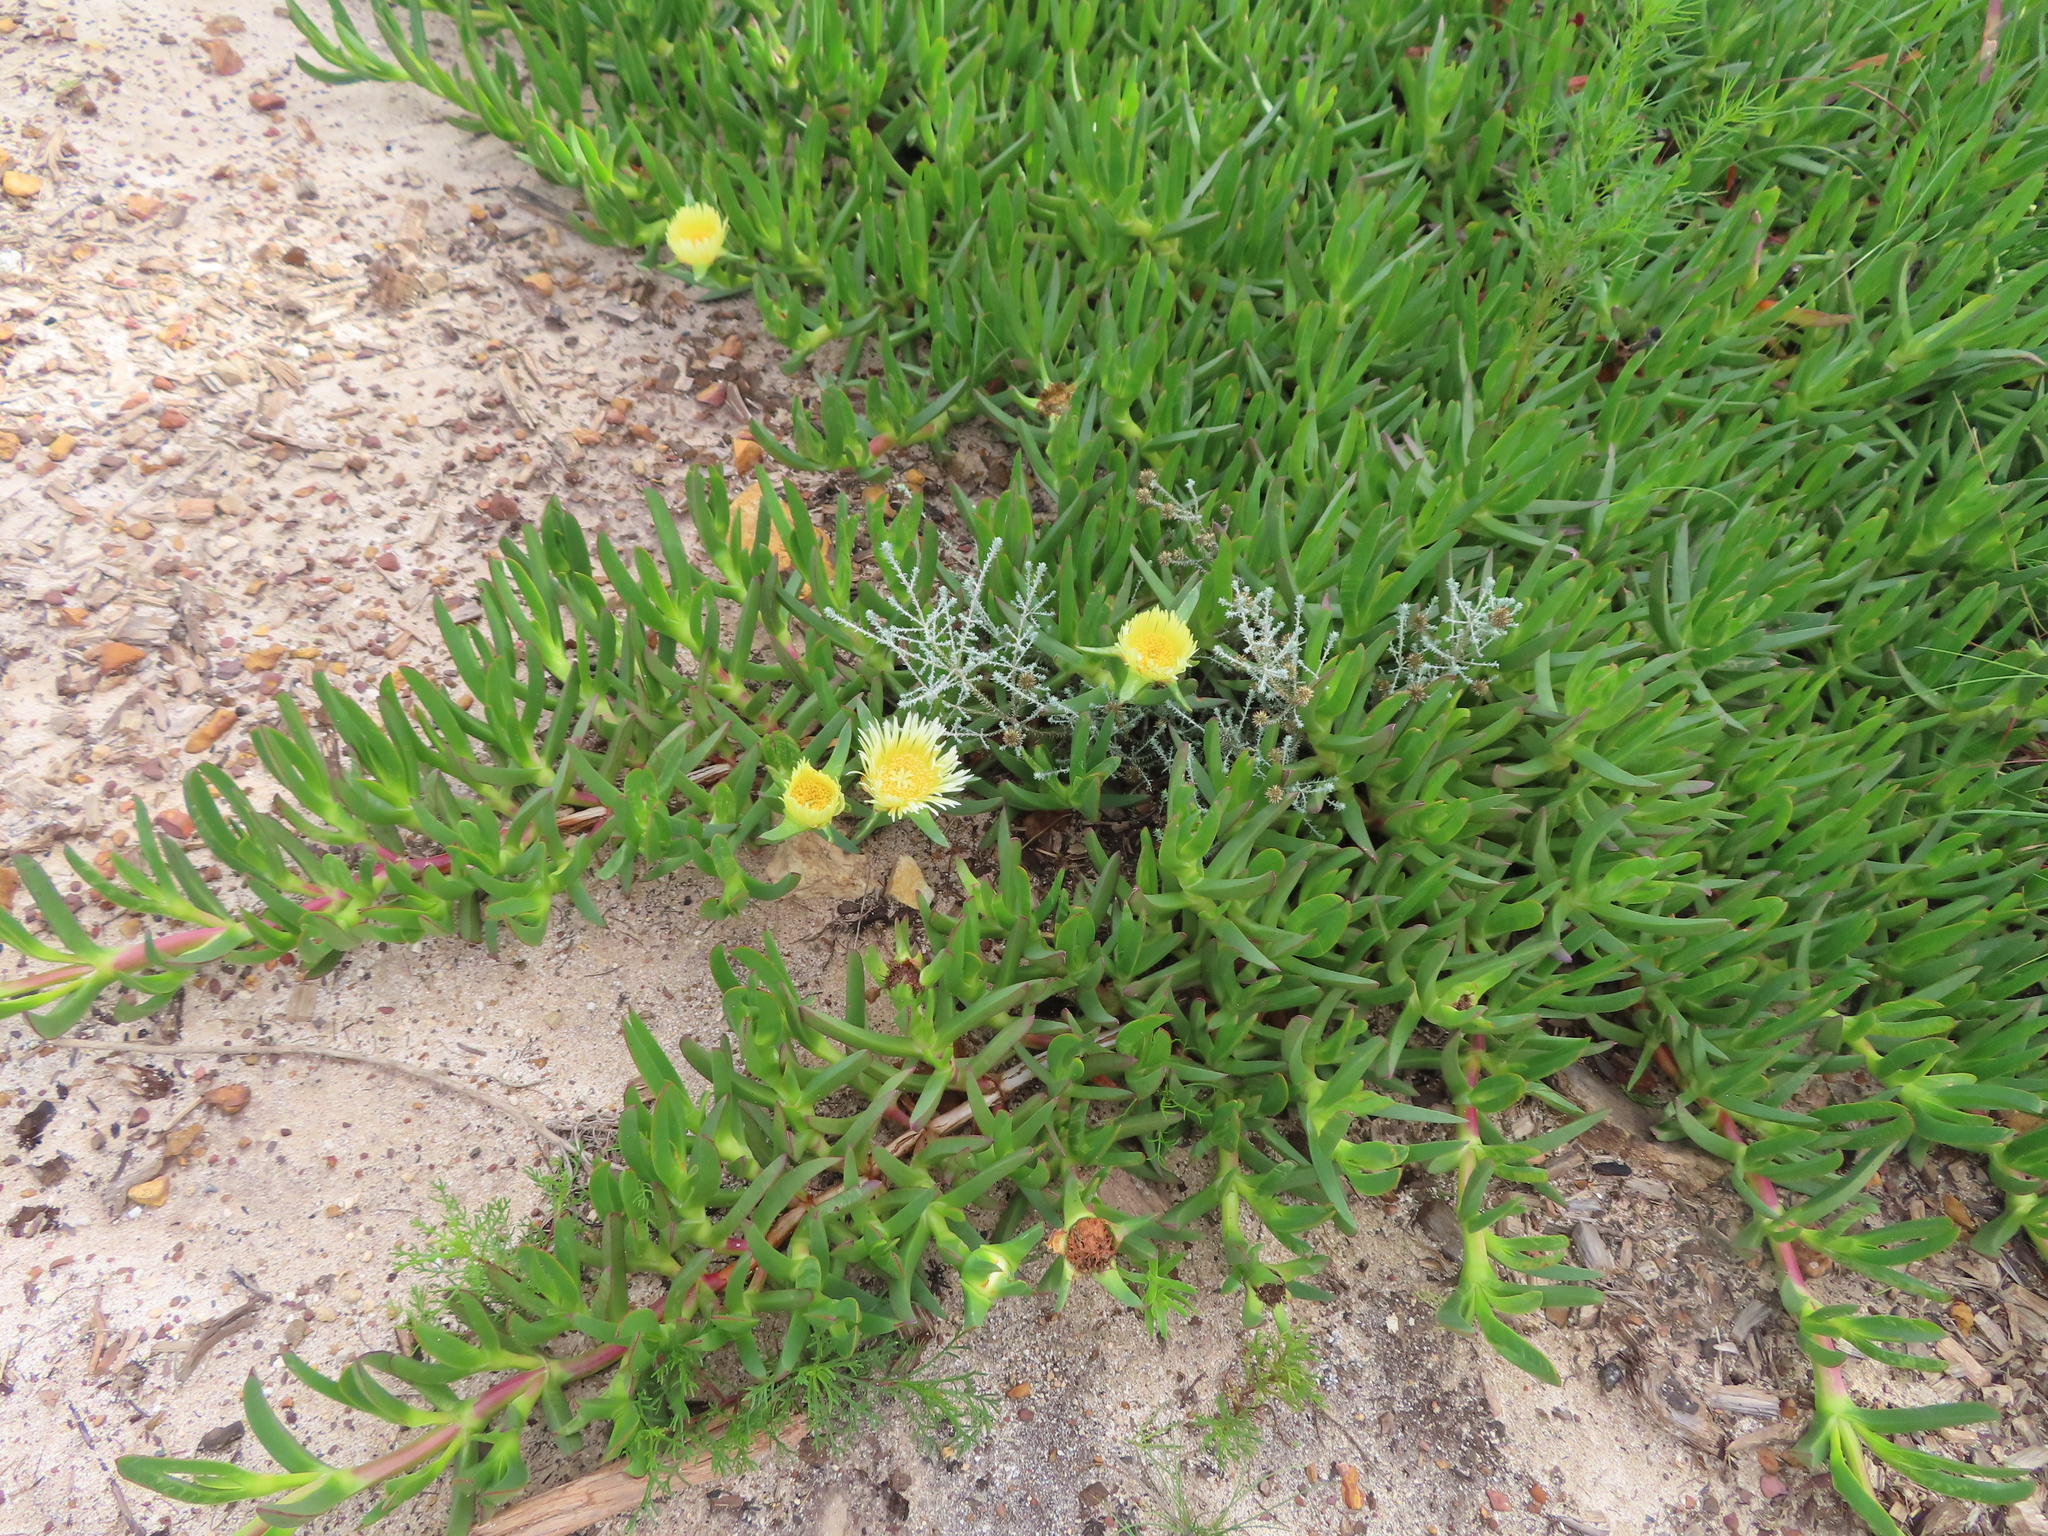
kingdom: Plantae
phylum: Tracheophyta
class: Magnoliopsida
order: Caryophyllales
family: Aizoaceae
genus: Carpobrotus
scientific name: Carpobrotus edulis
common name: Hottentot-fig
